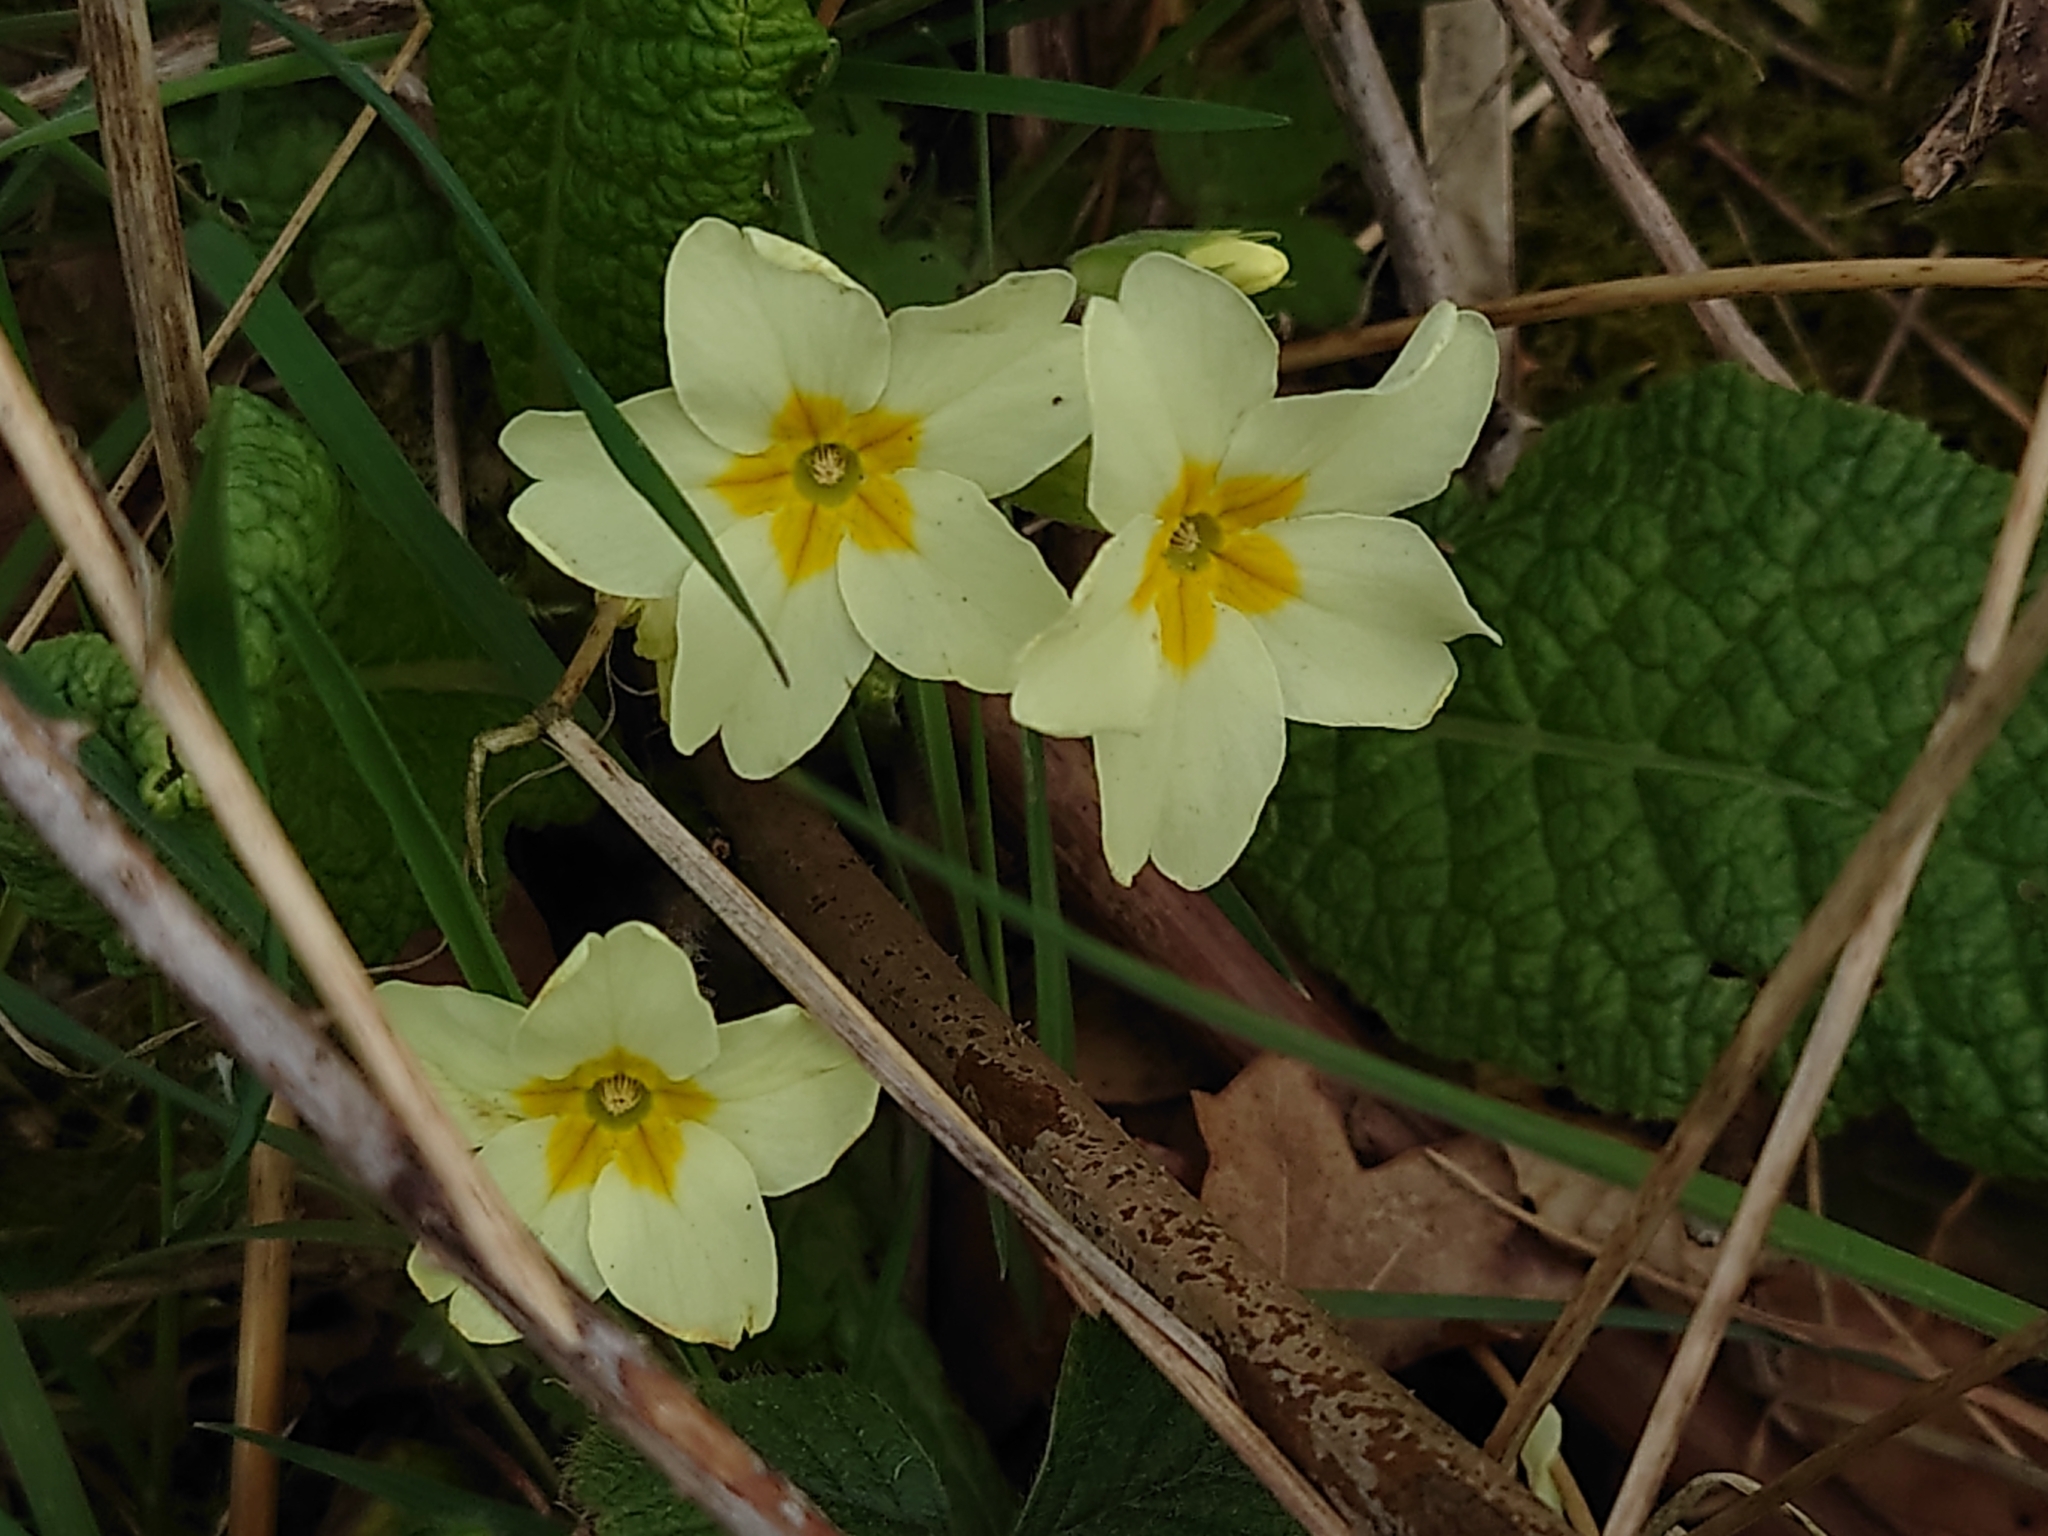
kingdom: Plantae
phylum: Tracheophyta
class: Magnoliopsida
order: Ericales
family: Primulaceae
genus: Primula
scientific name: Primula vulgaris
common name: Primrose
